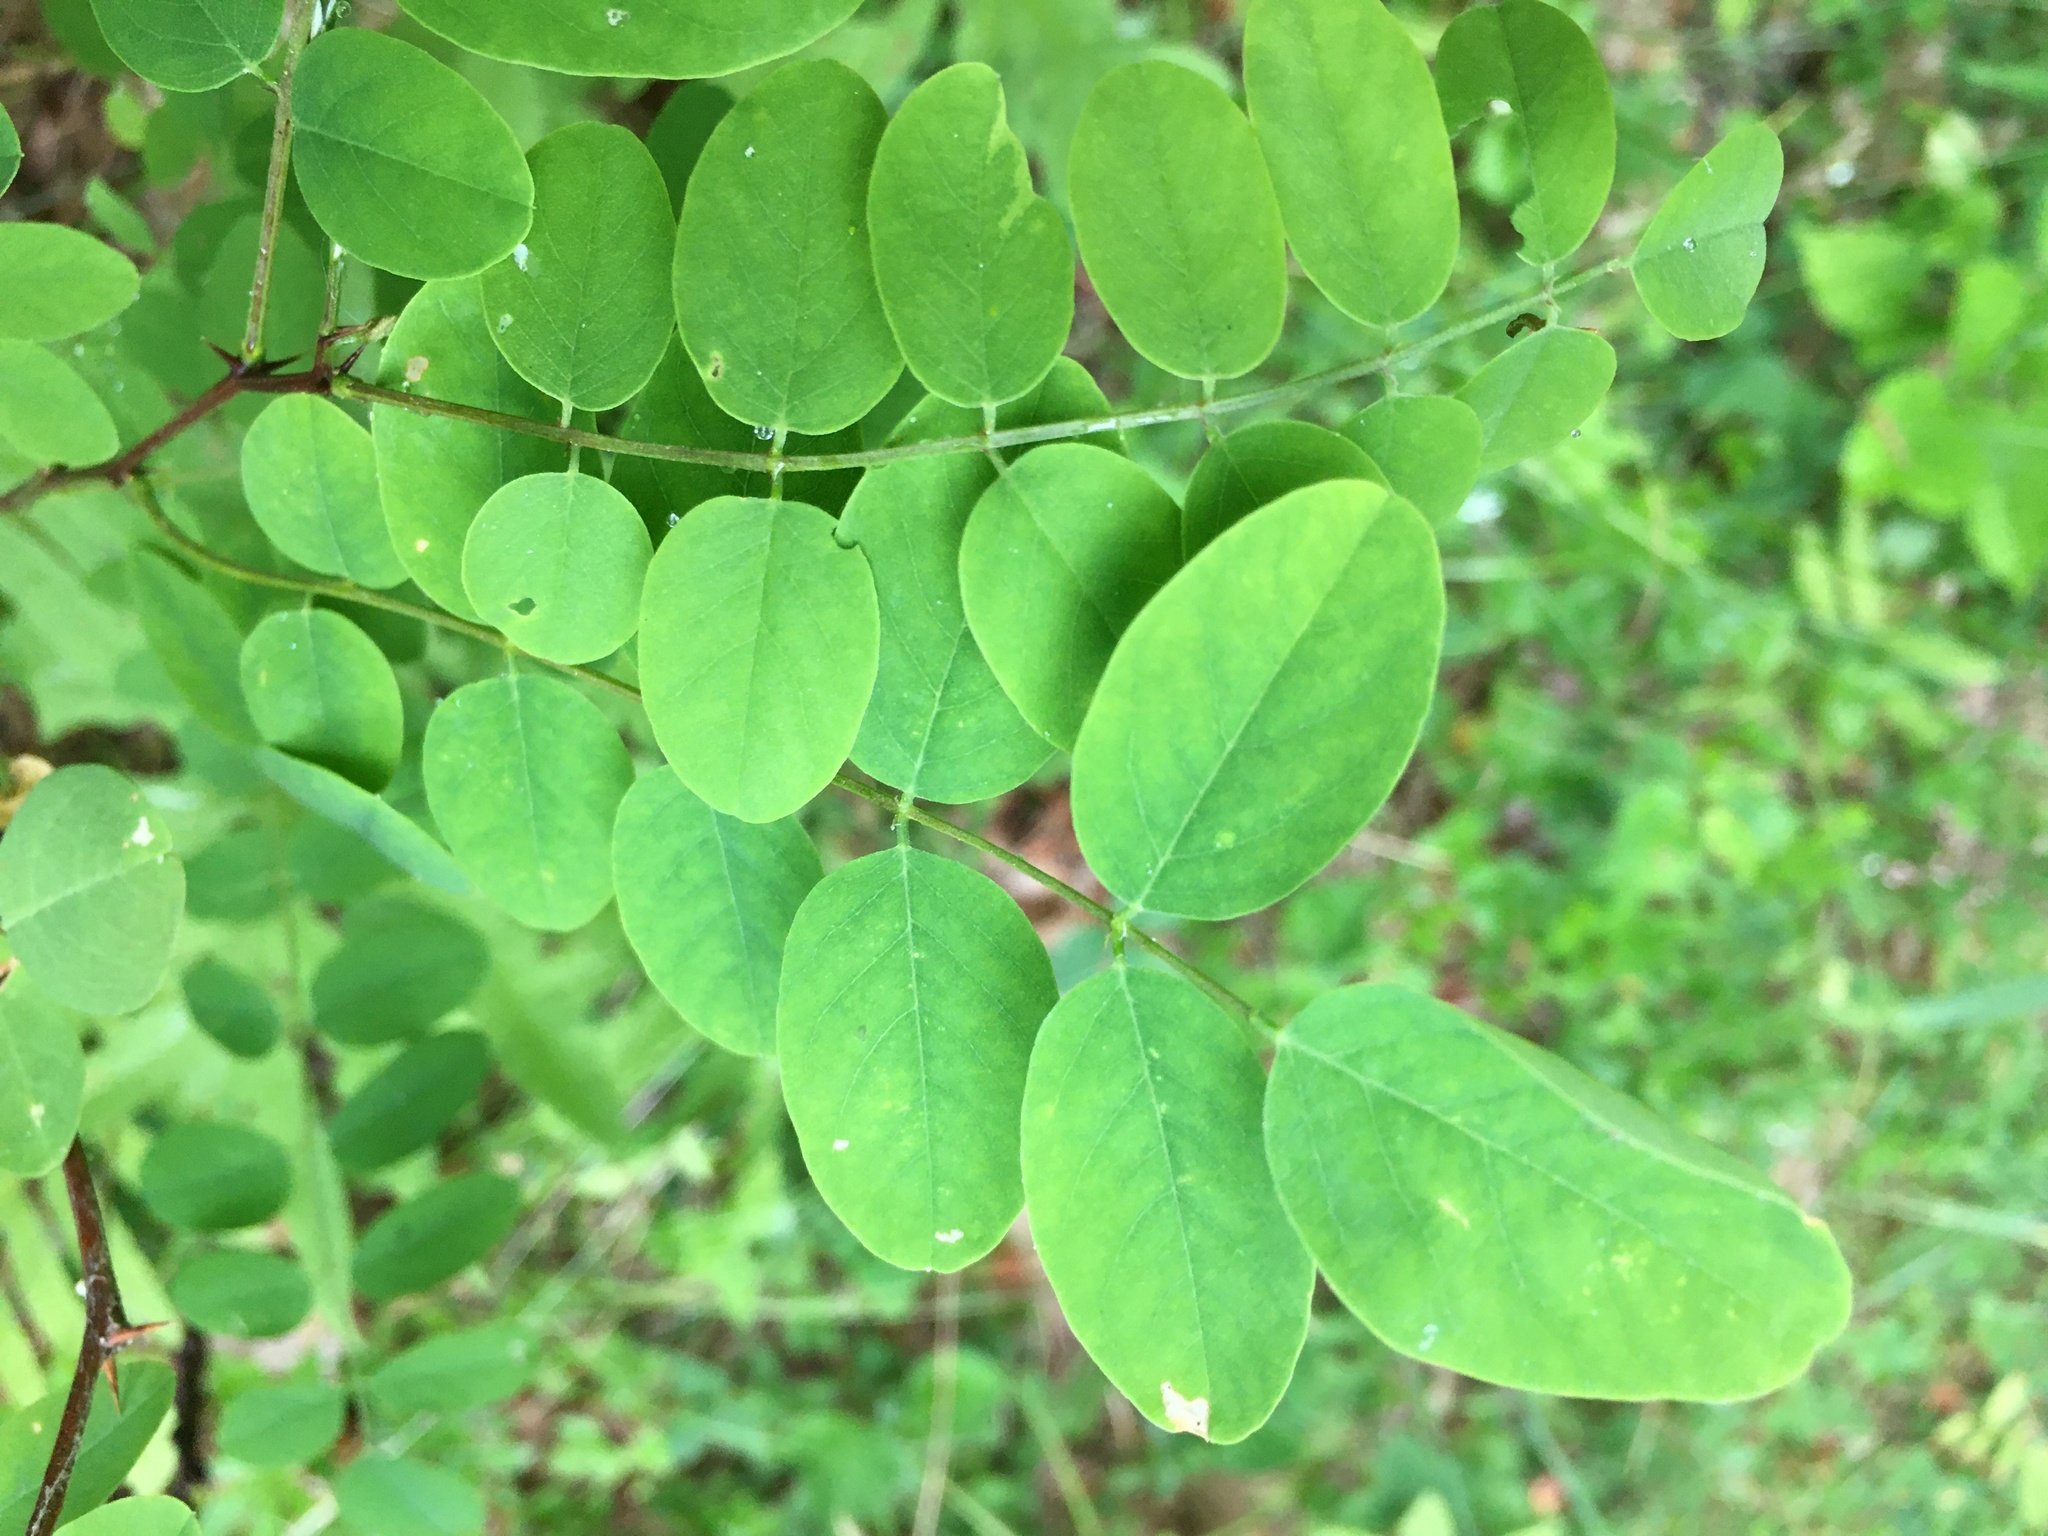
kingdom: Plantae
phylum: Tracheophyta
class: Magnoliopsida
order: Fabales
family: Fabaceae
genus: Robinia
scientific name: Robinia pseudoacacia
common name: Black locust
